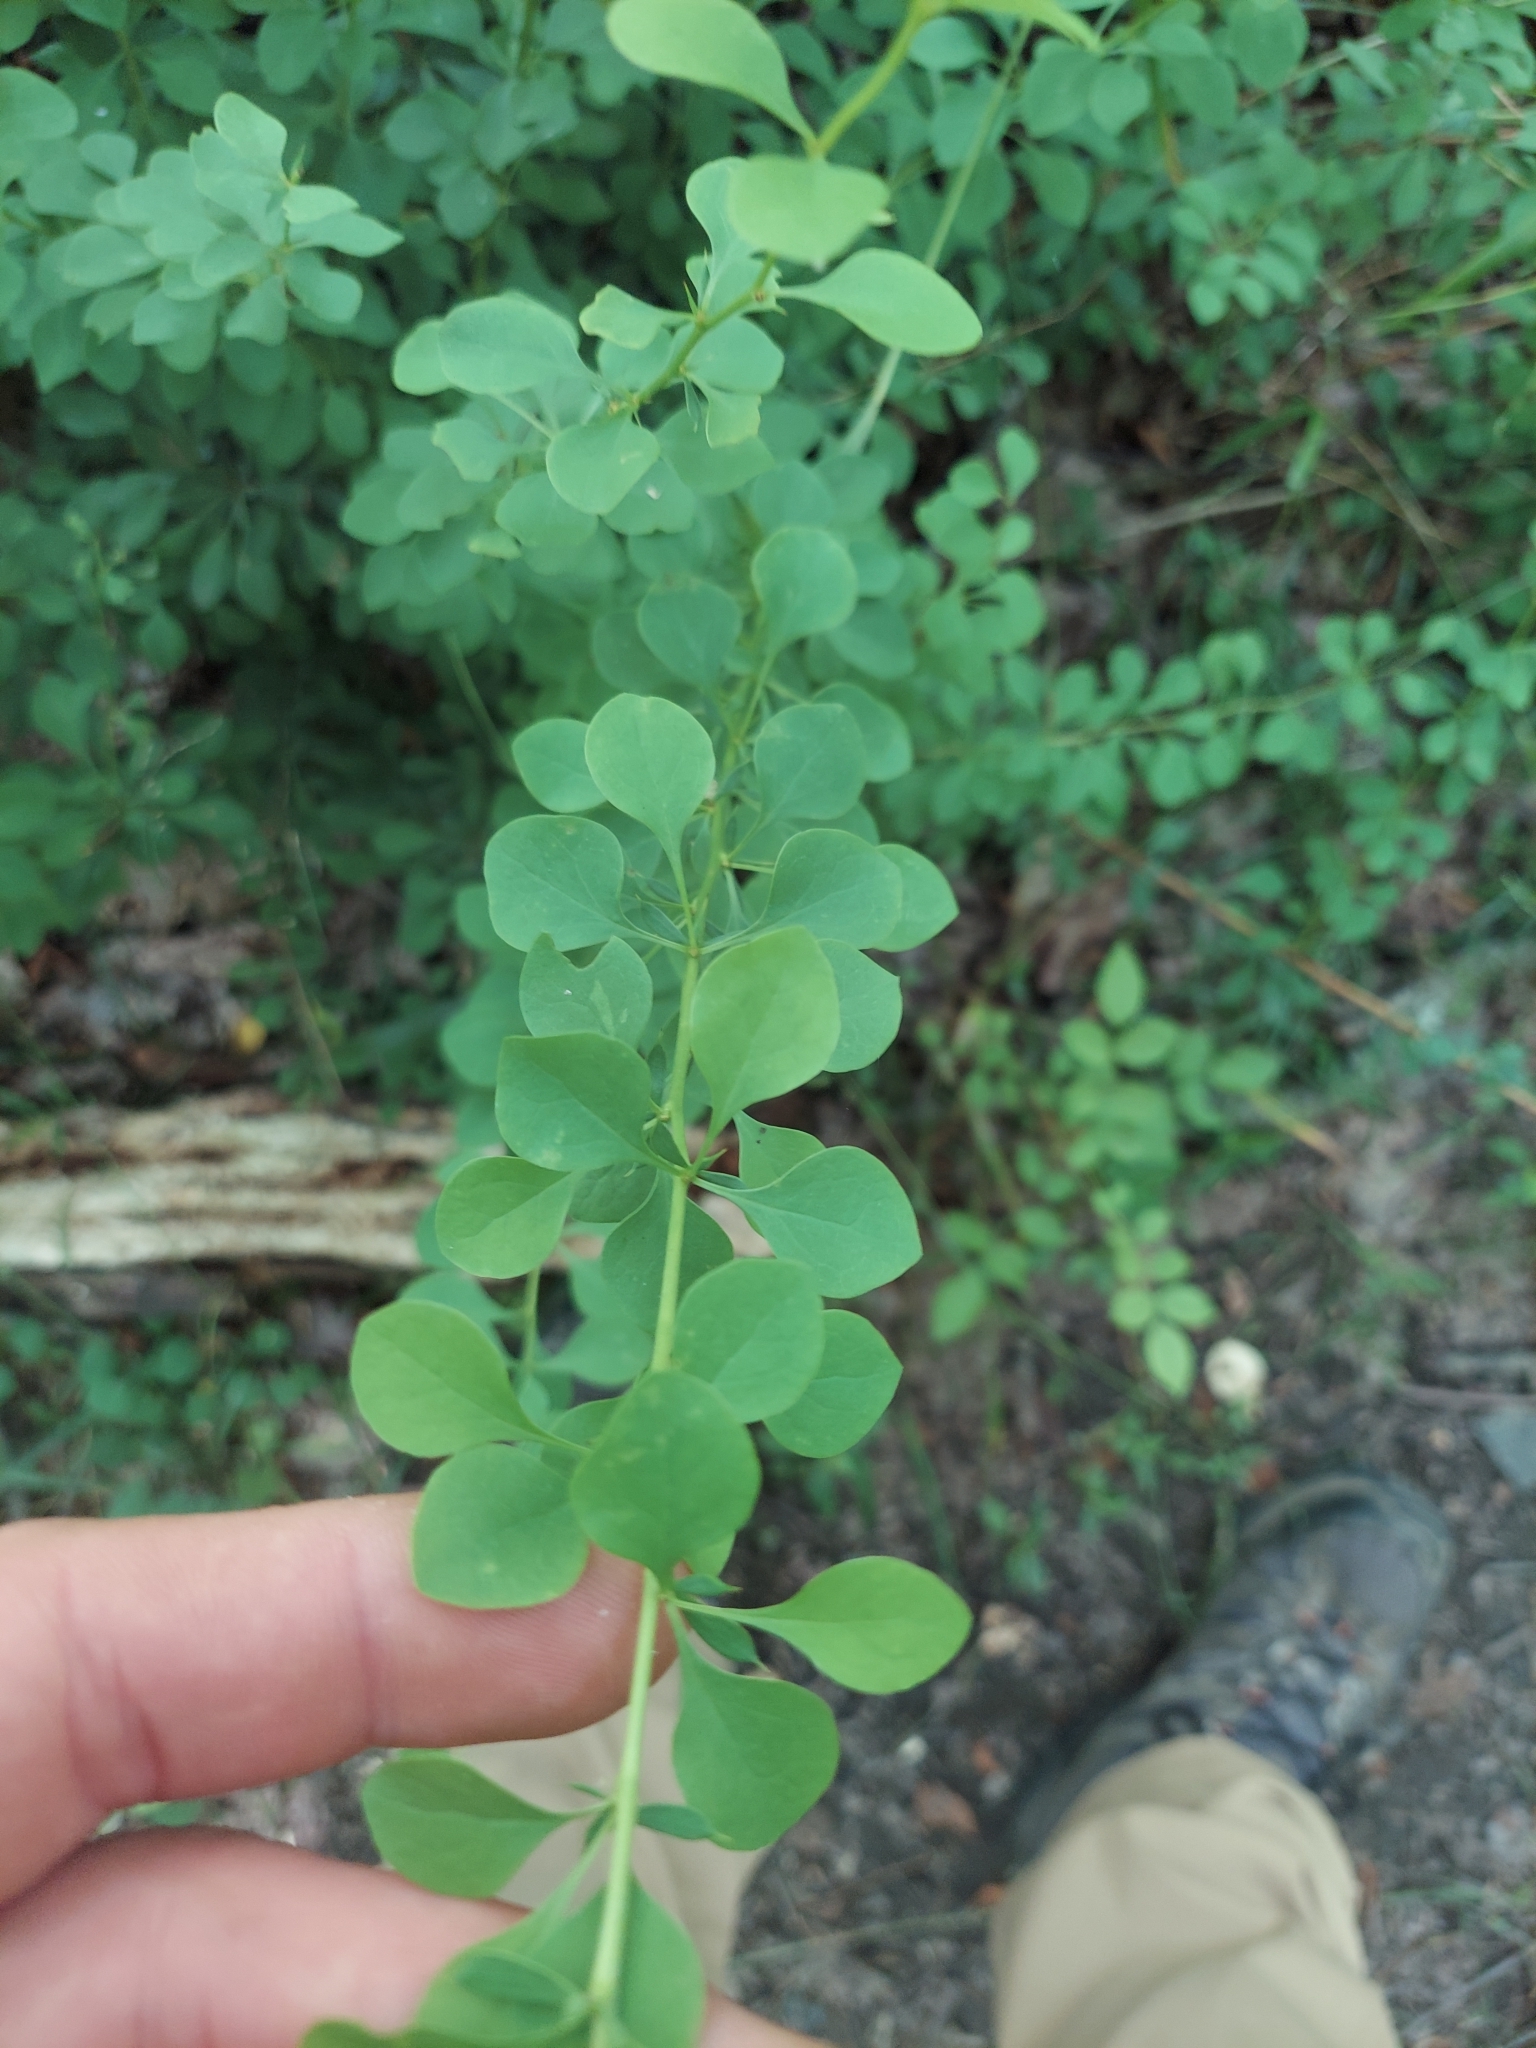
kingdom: Plantae
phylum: Tracheophyta
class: Magnoliopsida
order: Ranunculales
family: Berberidaceae
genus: Berberis
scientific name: Berberis thunbergii
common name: Japanese barberry
